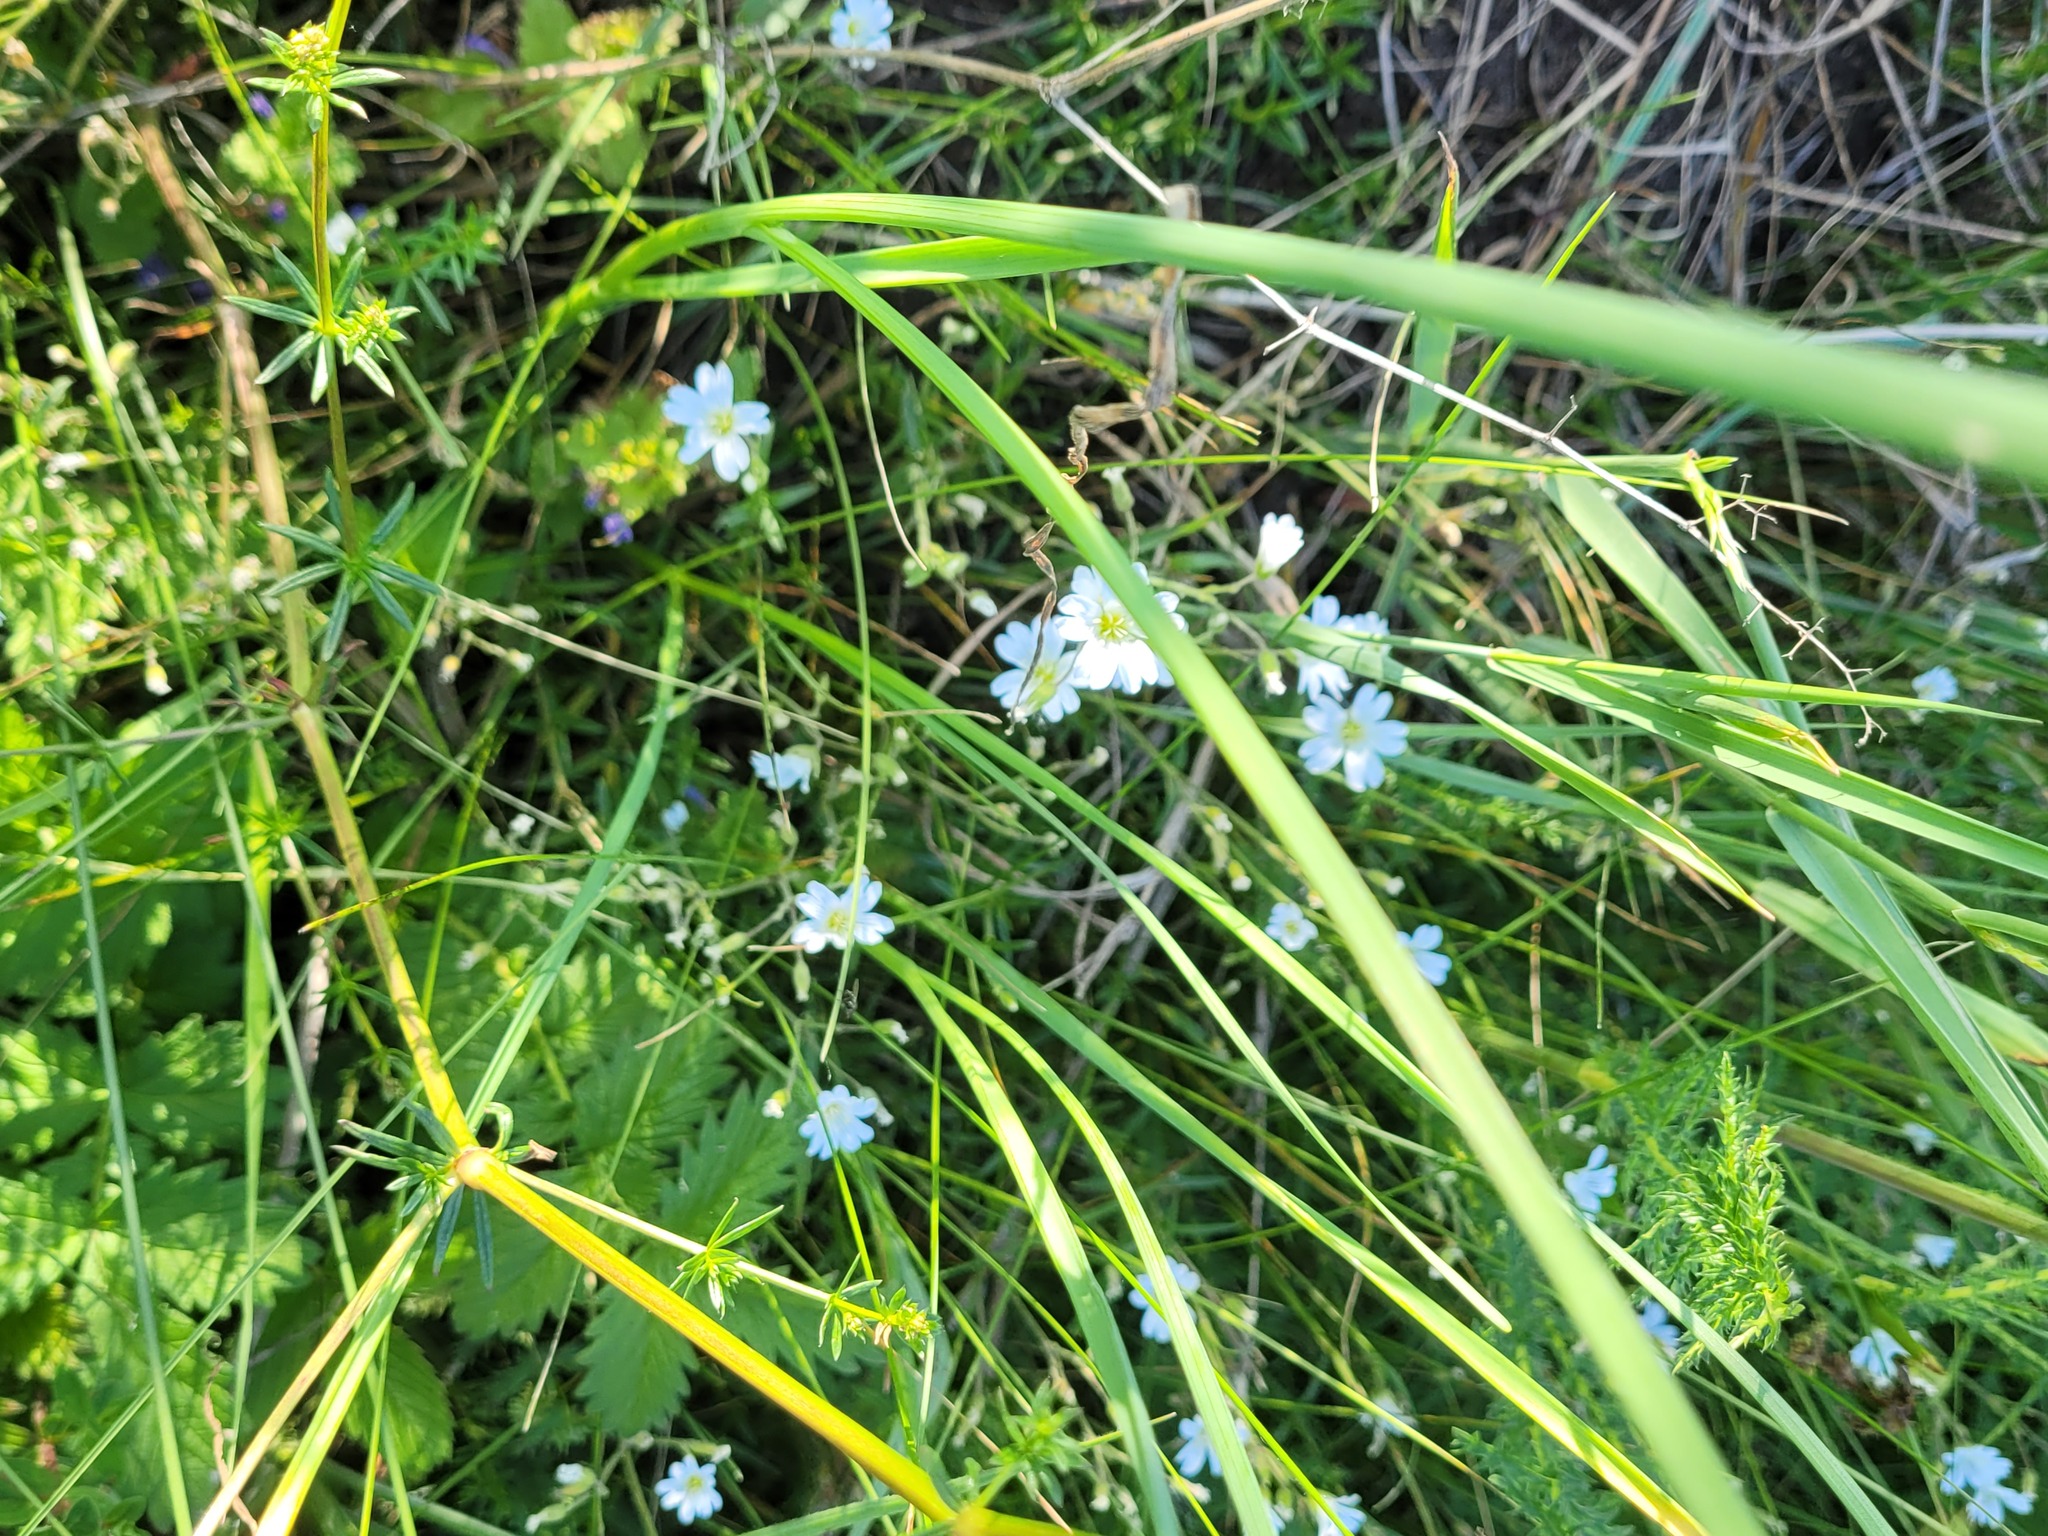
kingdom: Plantae
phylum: Tracheophyta
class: Magnoliopsida
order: Caryophyllales
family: Caryophyllaceae
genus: Cerastium
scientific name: Cerastium arvense
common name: Field mouse-ear
